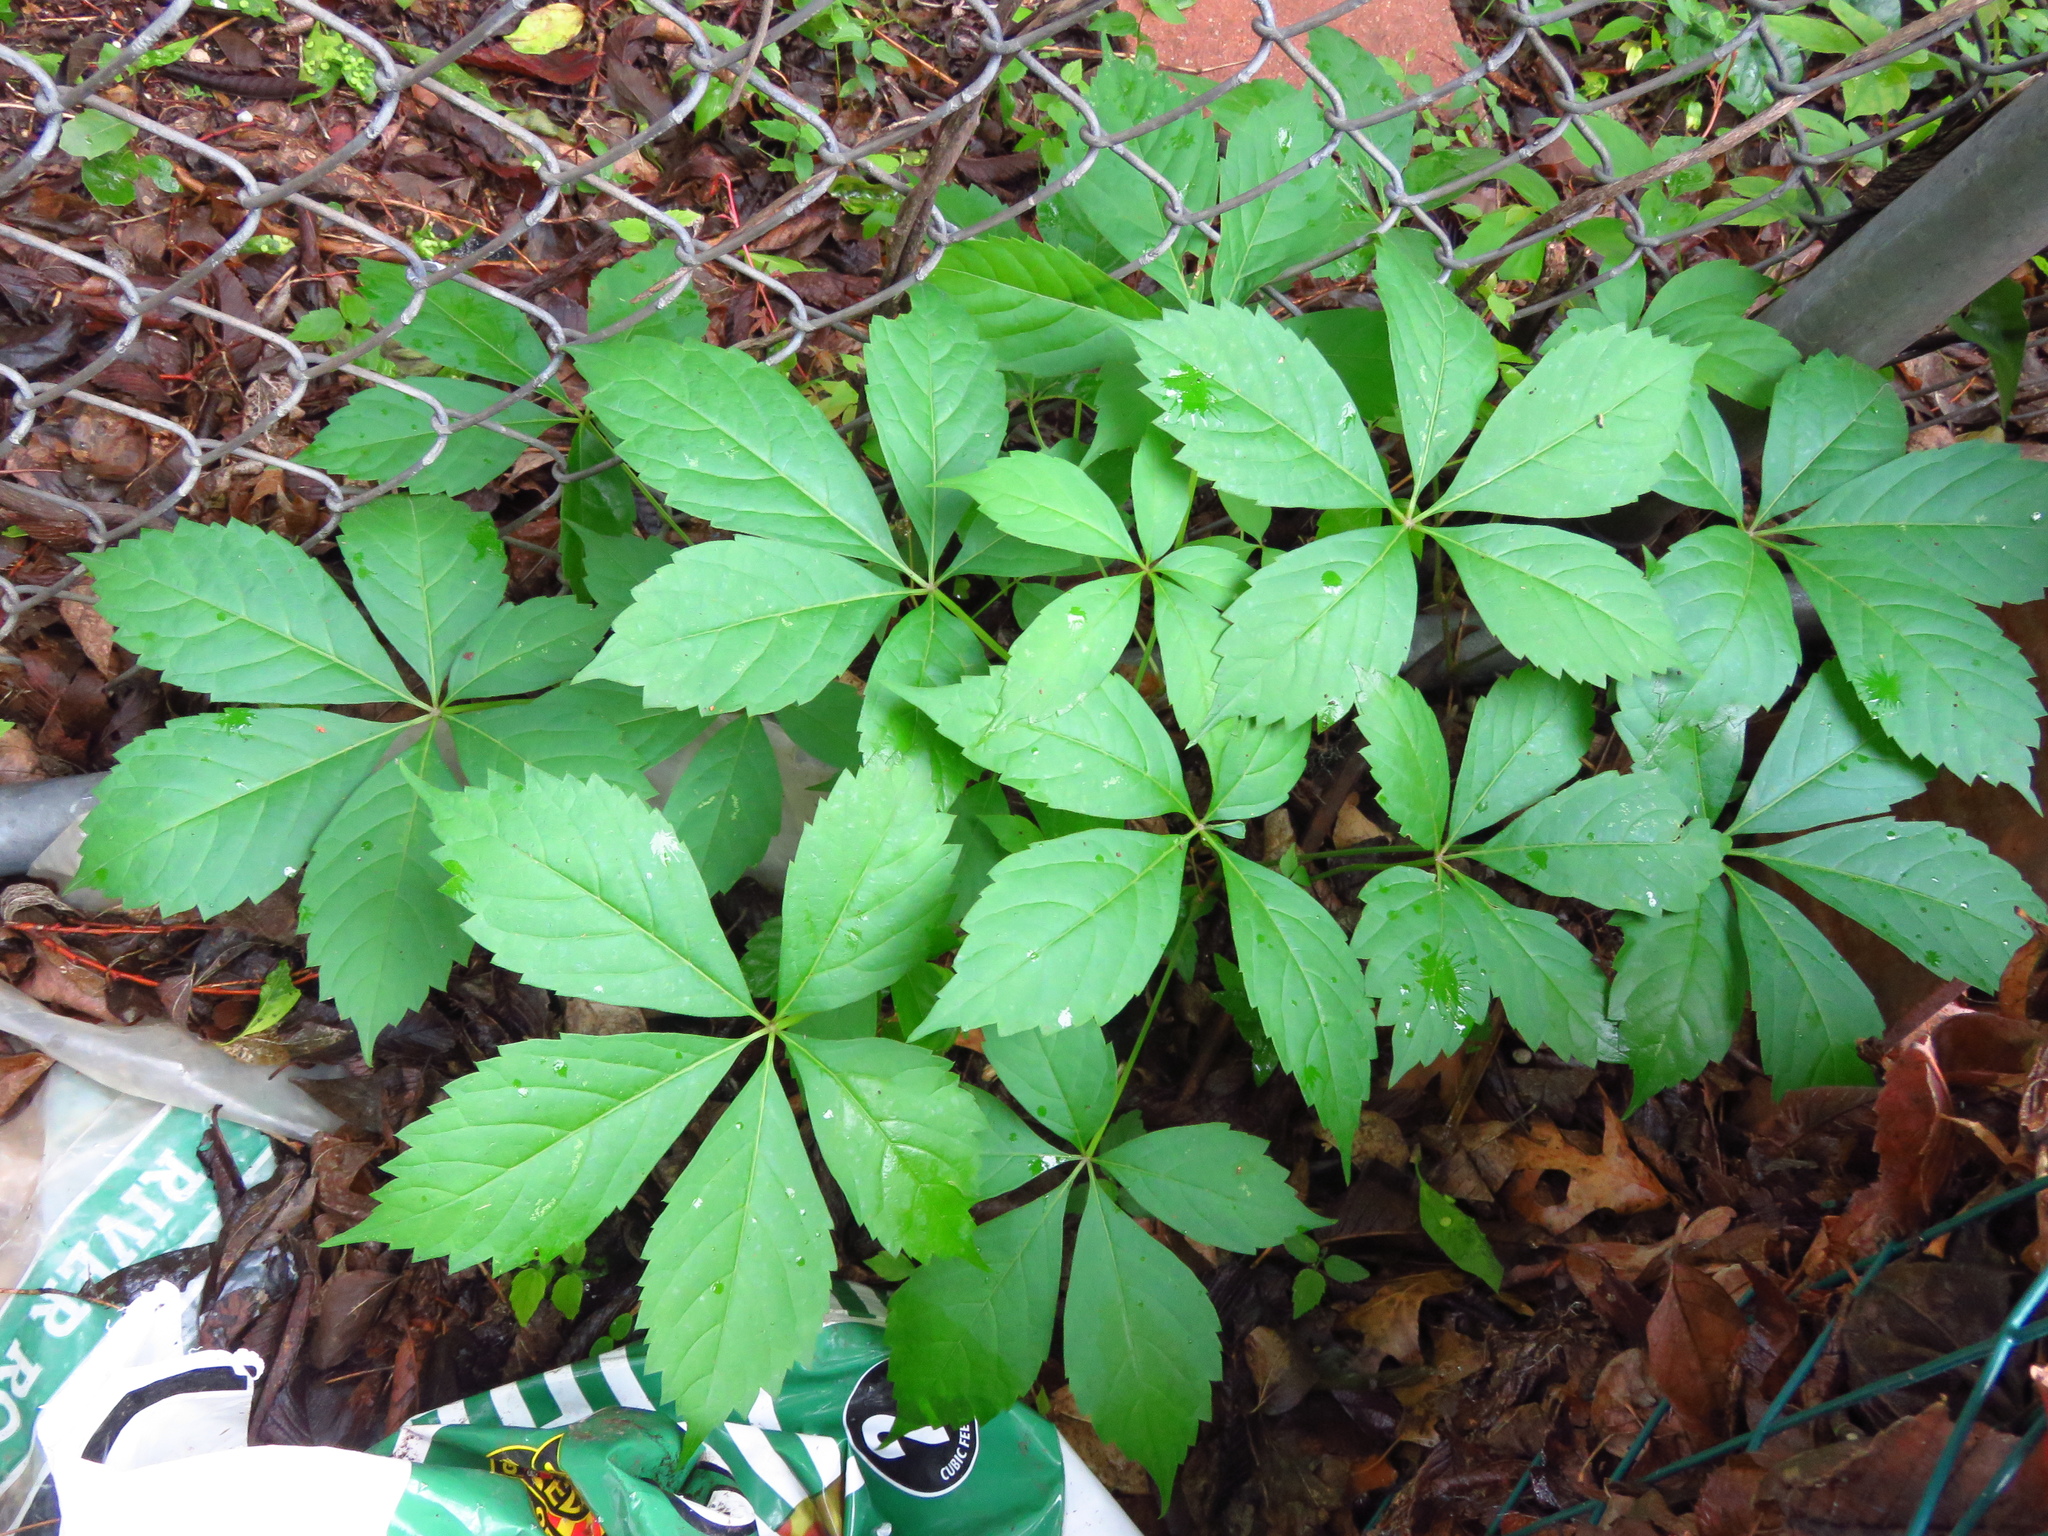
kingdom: Plantae
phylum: Tracheophyta
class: Magnoliopsida
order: Vitales
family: Vitaceae
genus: Parthenocissus
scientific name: Parthenocissus quinquefolia
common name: Virginia-creeper
